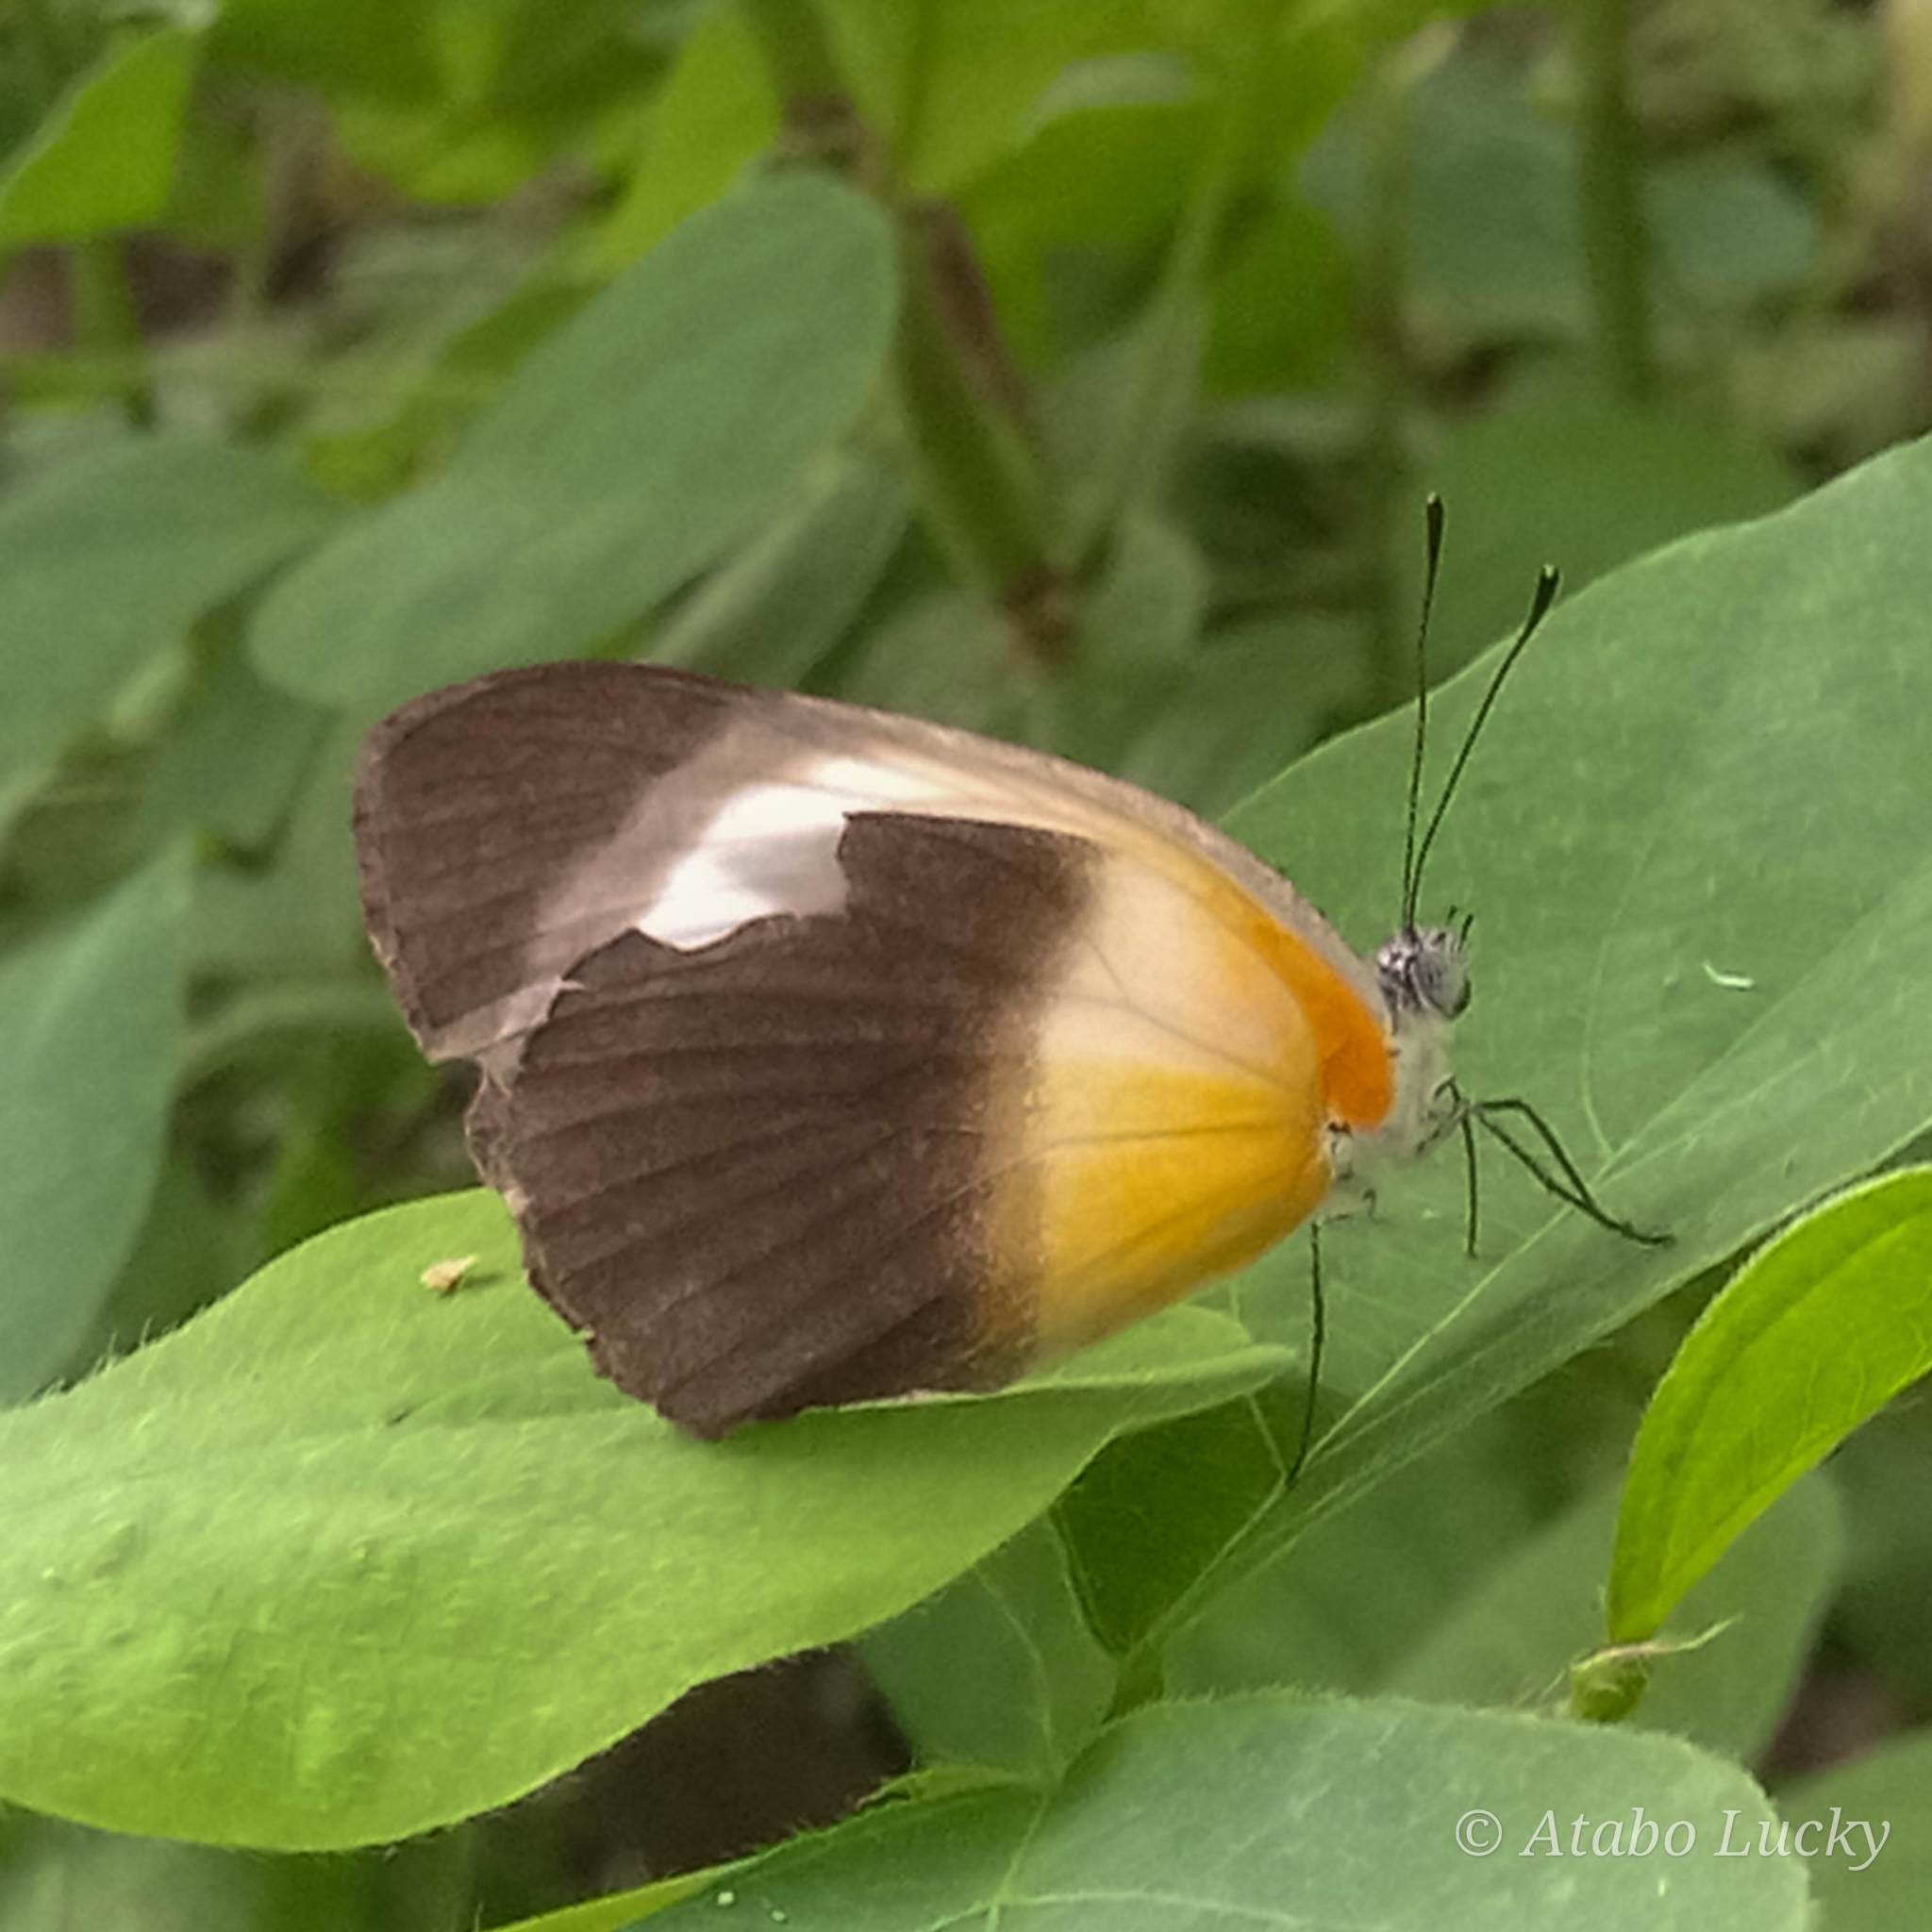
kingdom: Animalia
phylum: Arthropoda
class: Insecta
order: Lepidoptera
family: Pieridae
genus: Mylothris
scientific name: Mylothris chloris
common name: Western dotted border
